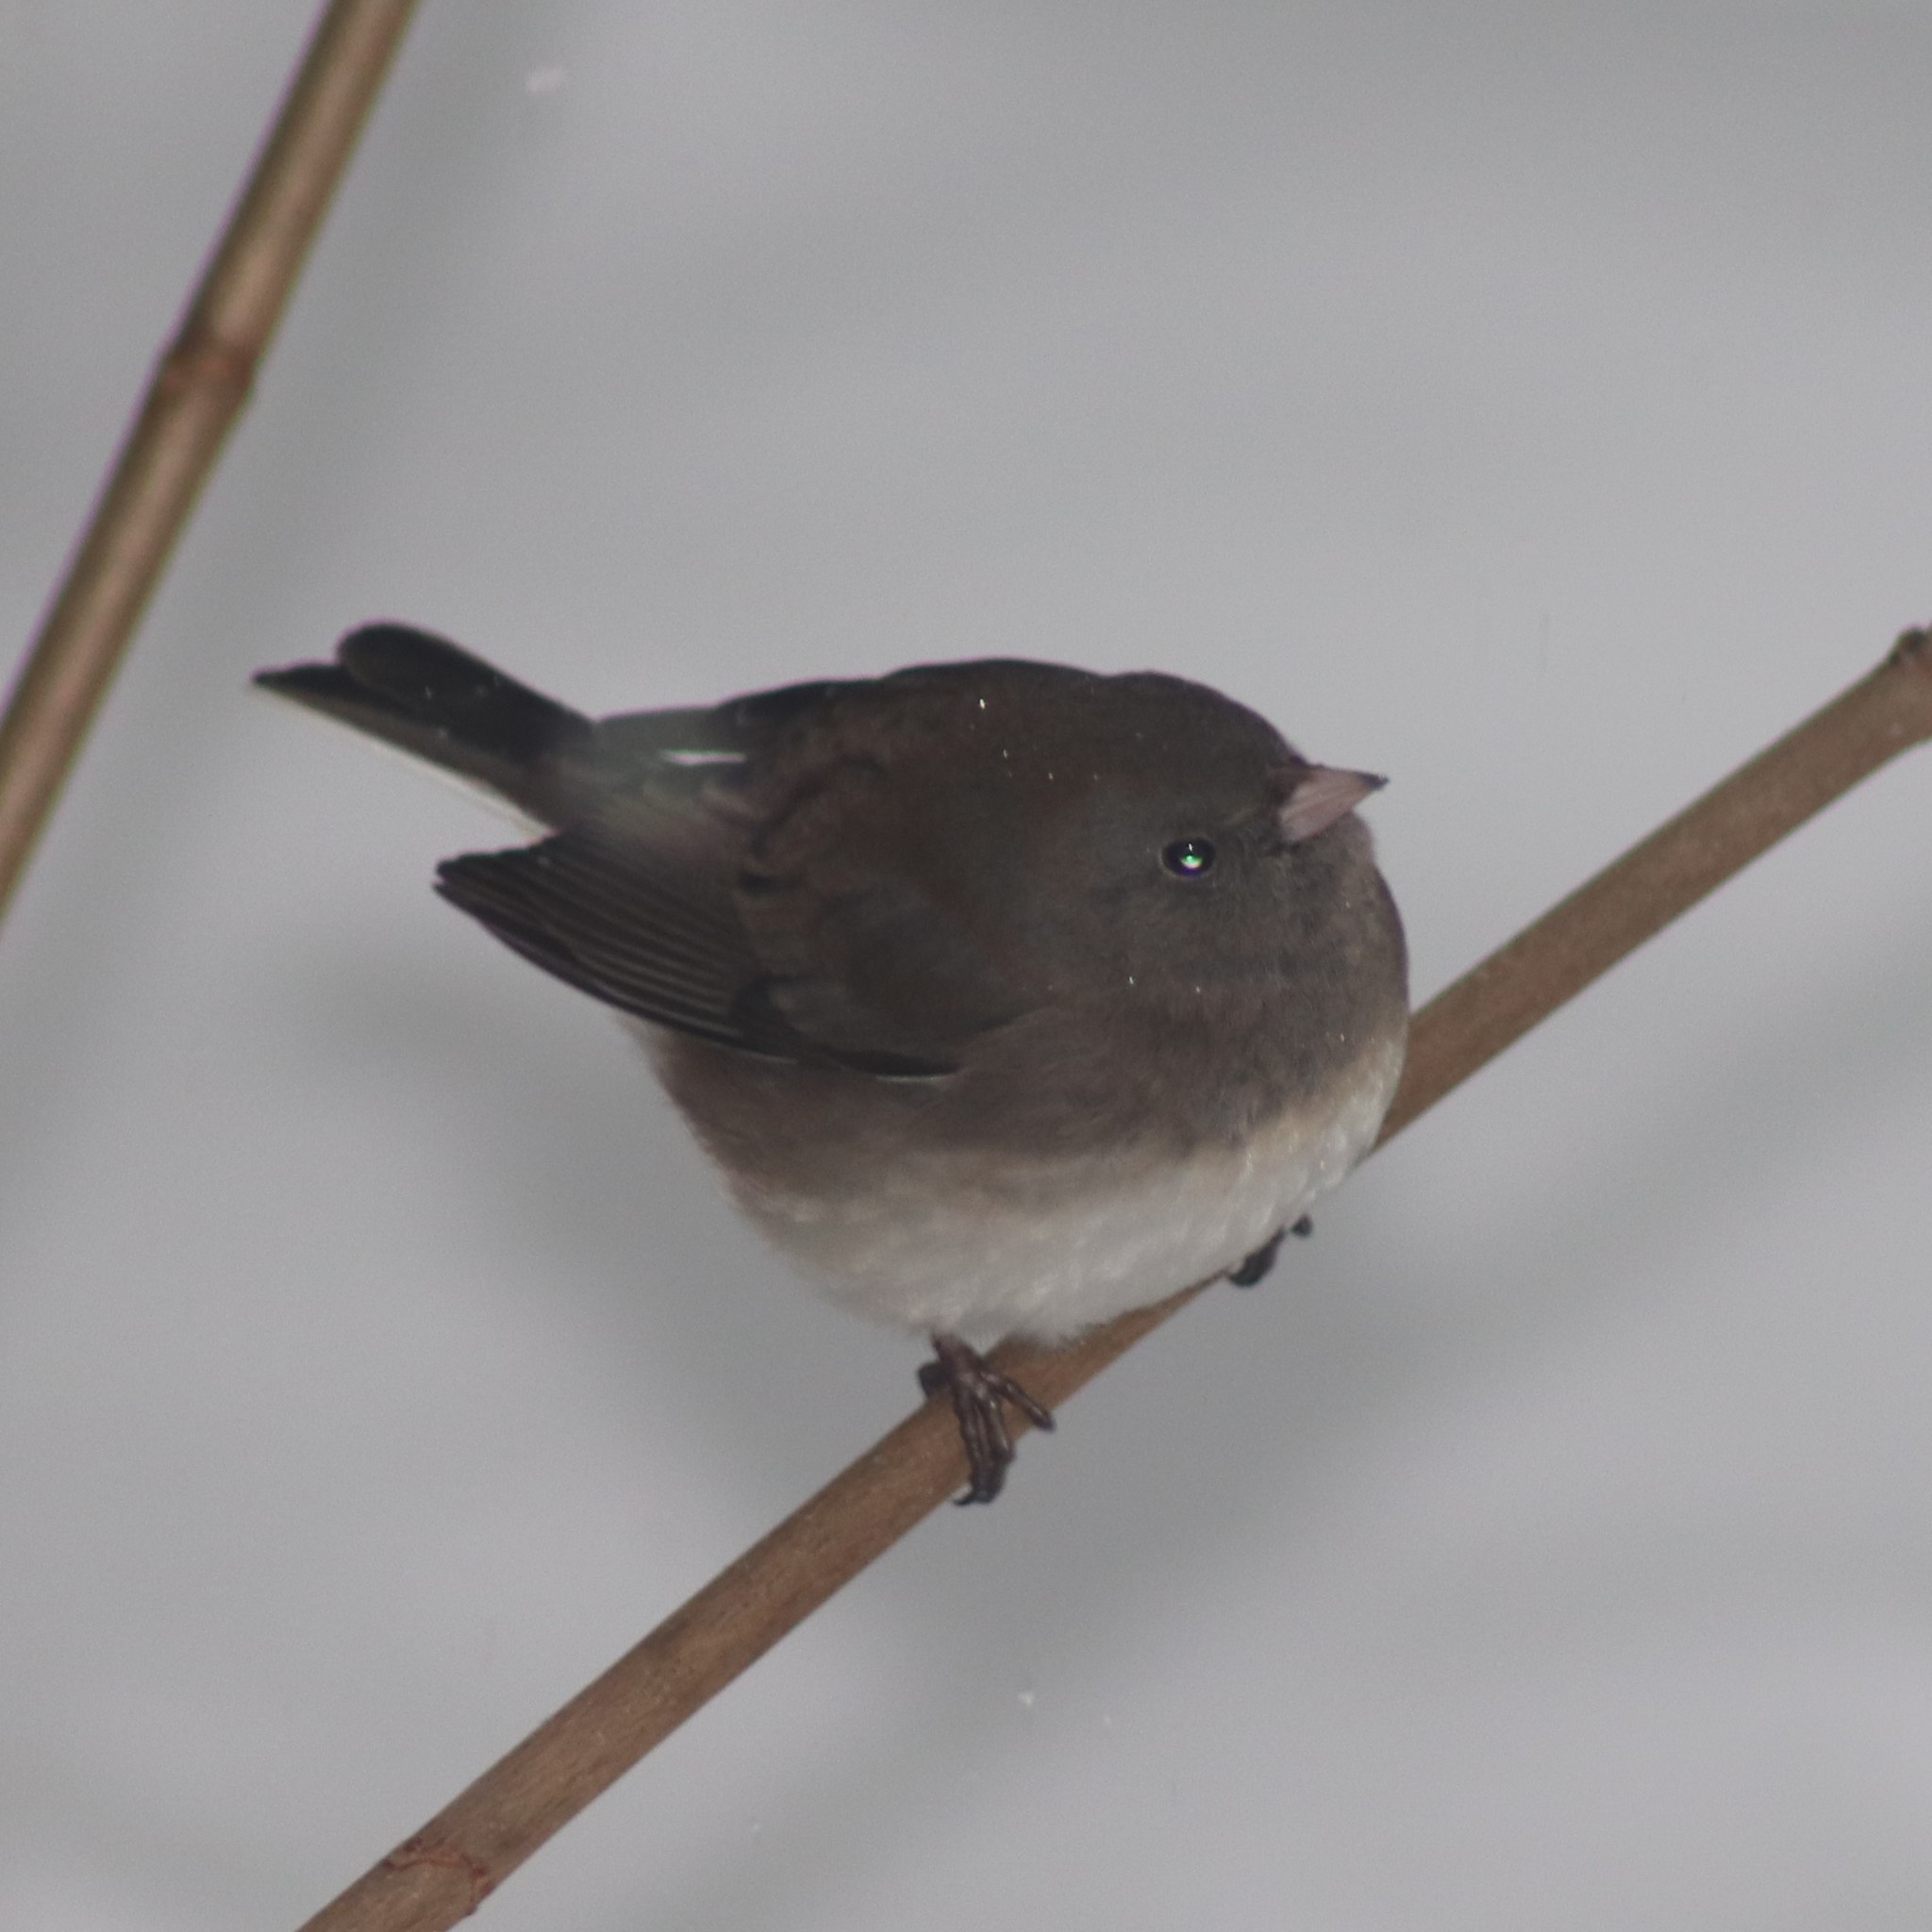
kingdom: Animalia
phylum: Chordata
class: Aves
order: Passeriformes
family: Passerellidae
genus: Junco
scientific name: Junco hyemalis
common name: Dark-eyed junco
